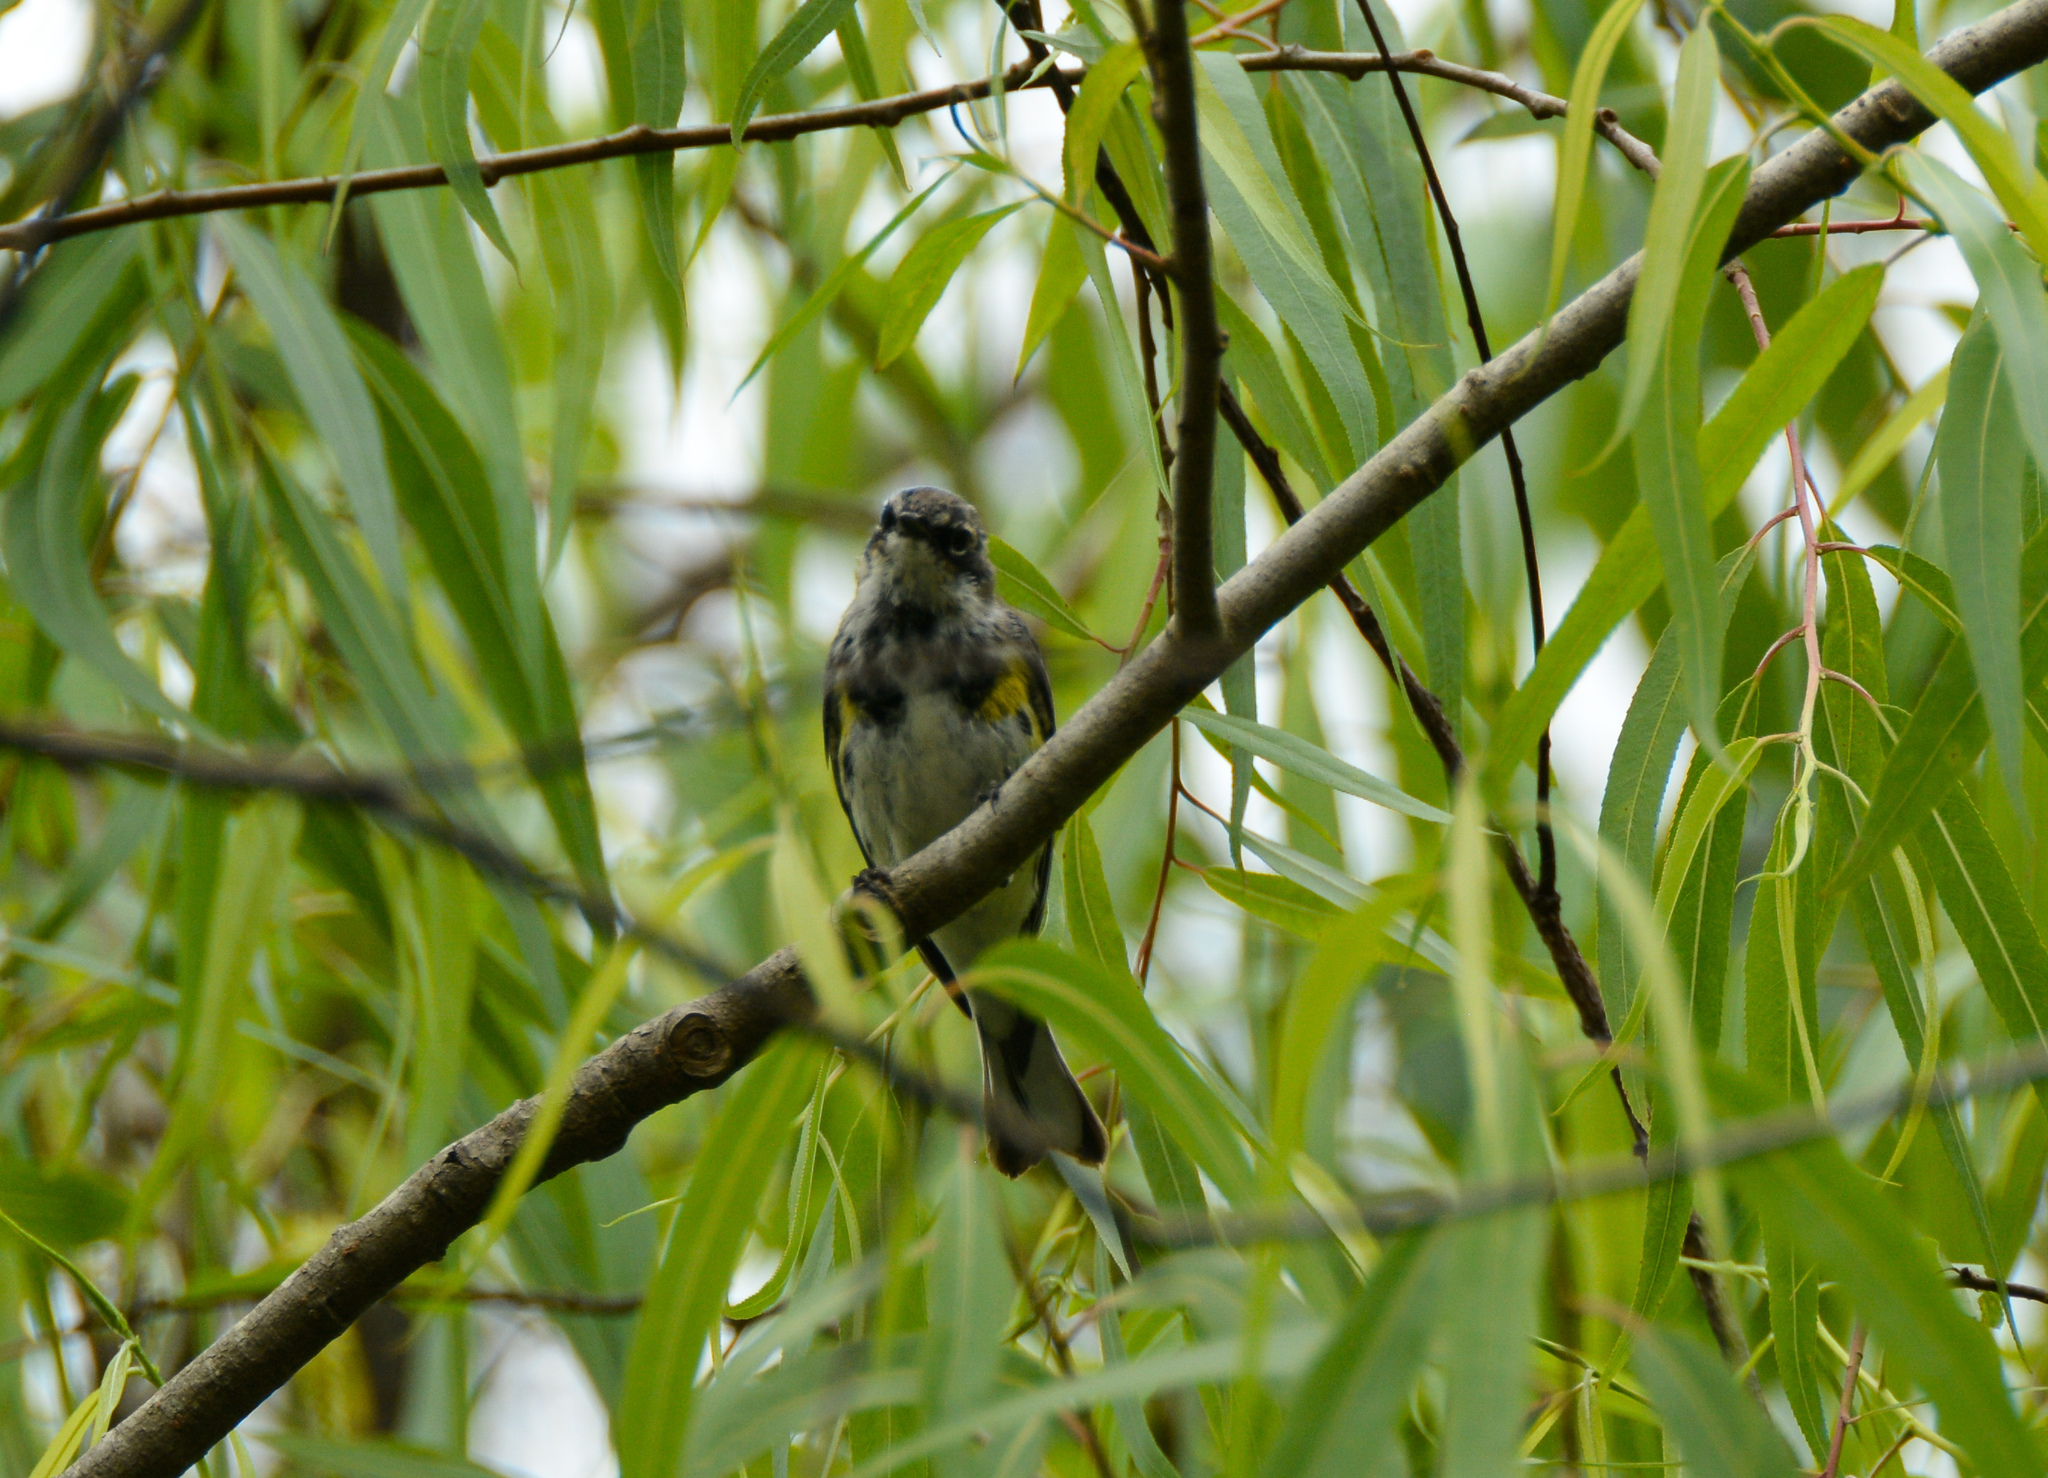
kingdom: Animalia
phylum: Chordata
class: Aves
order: Passeriformes
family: Parulidae
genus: Setophaga
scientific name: Setophaga coronata
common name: Myrtle warbler
